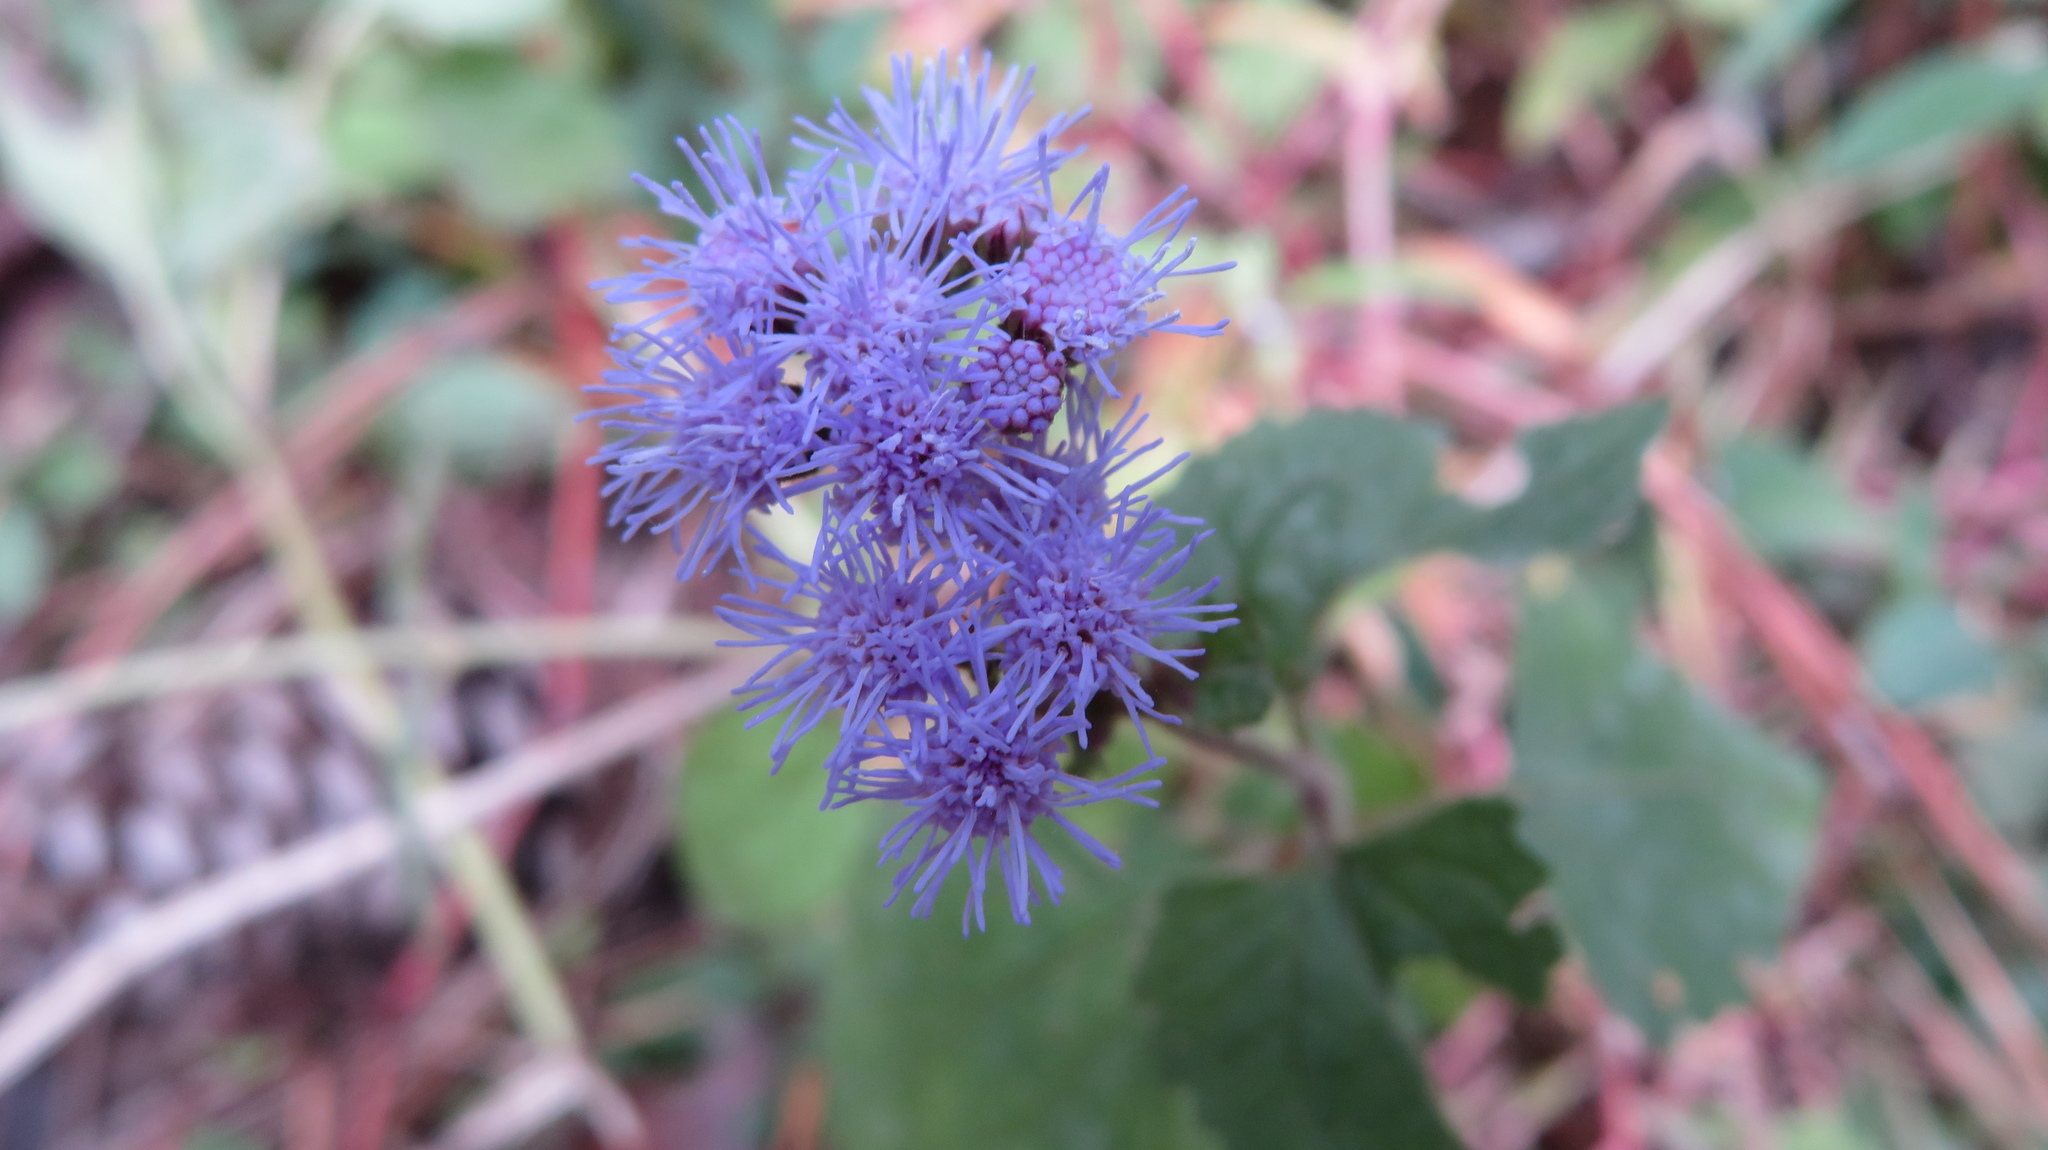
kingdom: Plantae
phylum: Tracheophyta
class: Magnoliopsida
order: Asterales
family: Asteraceae
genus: Conoclinium
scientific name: Conoclinium coelestinum
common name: Blue mistflower
